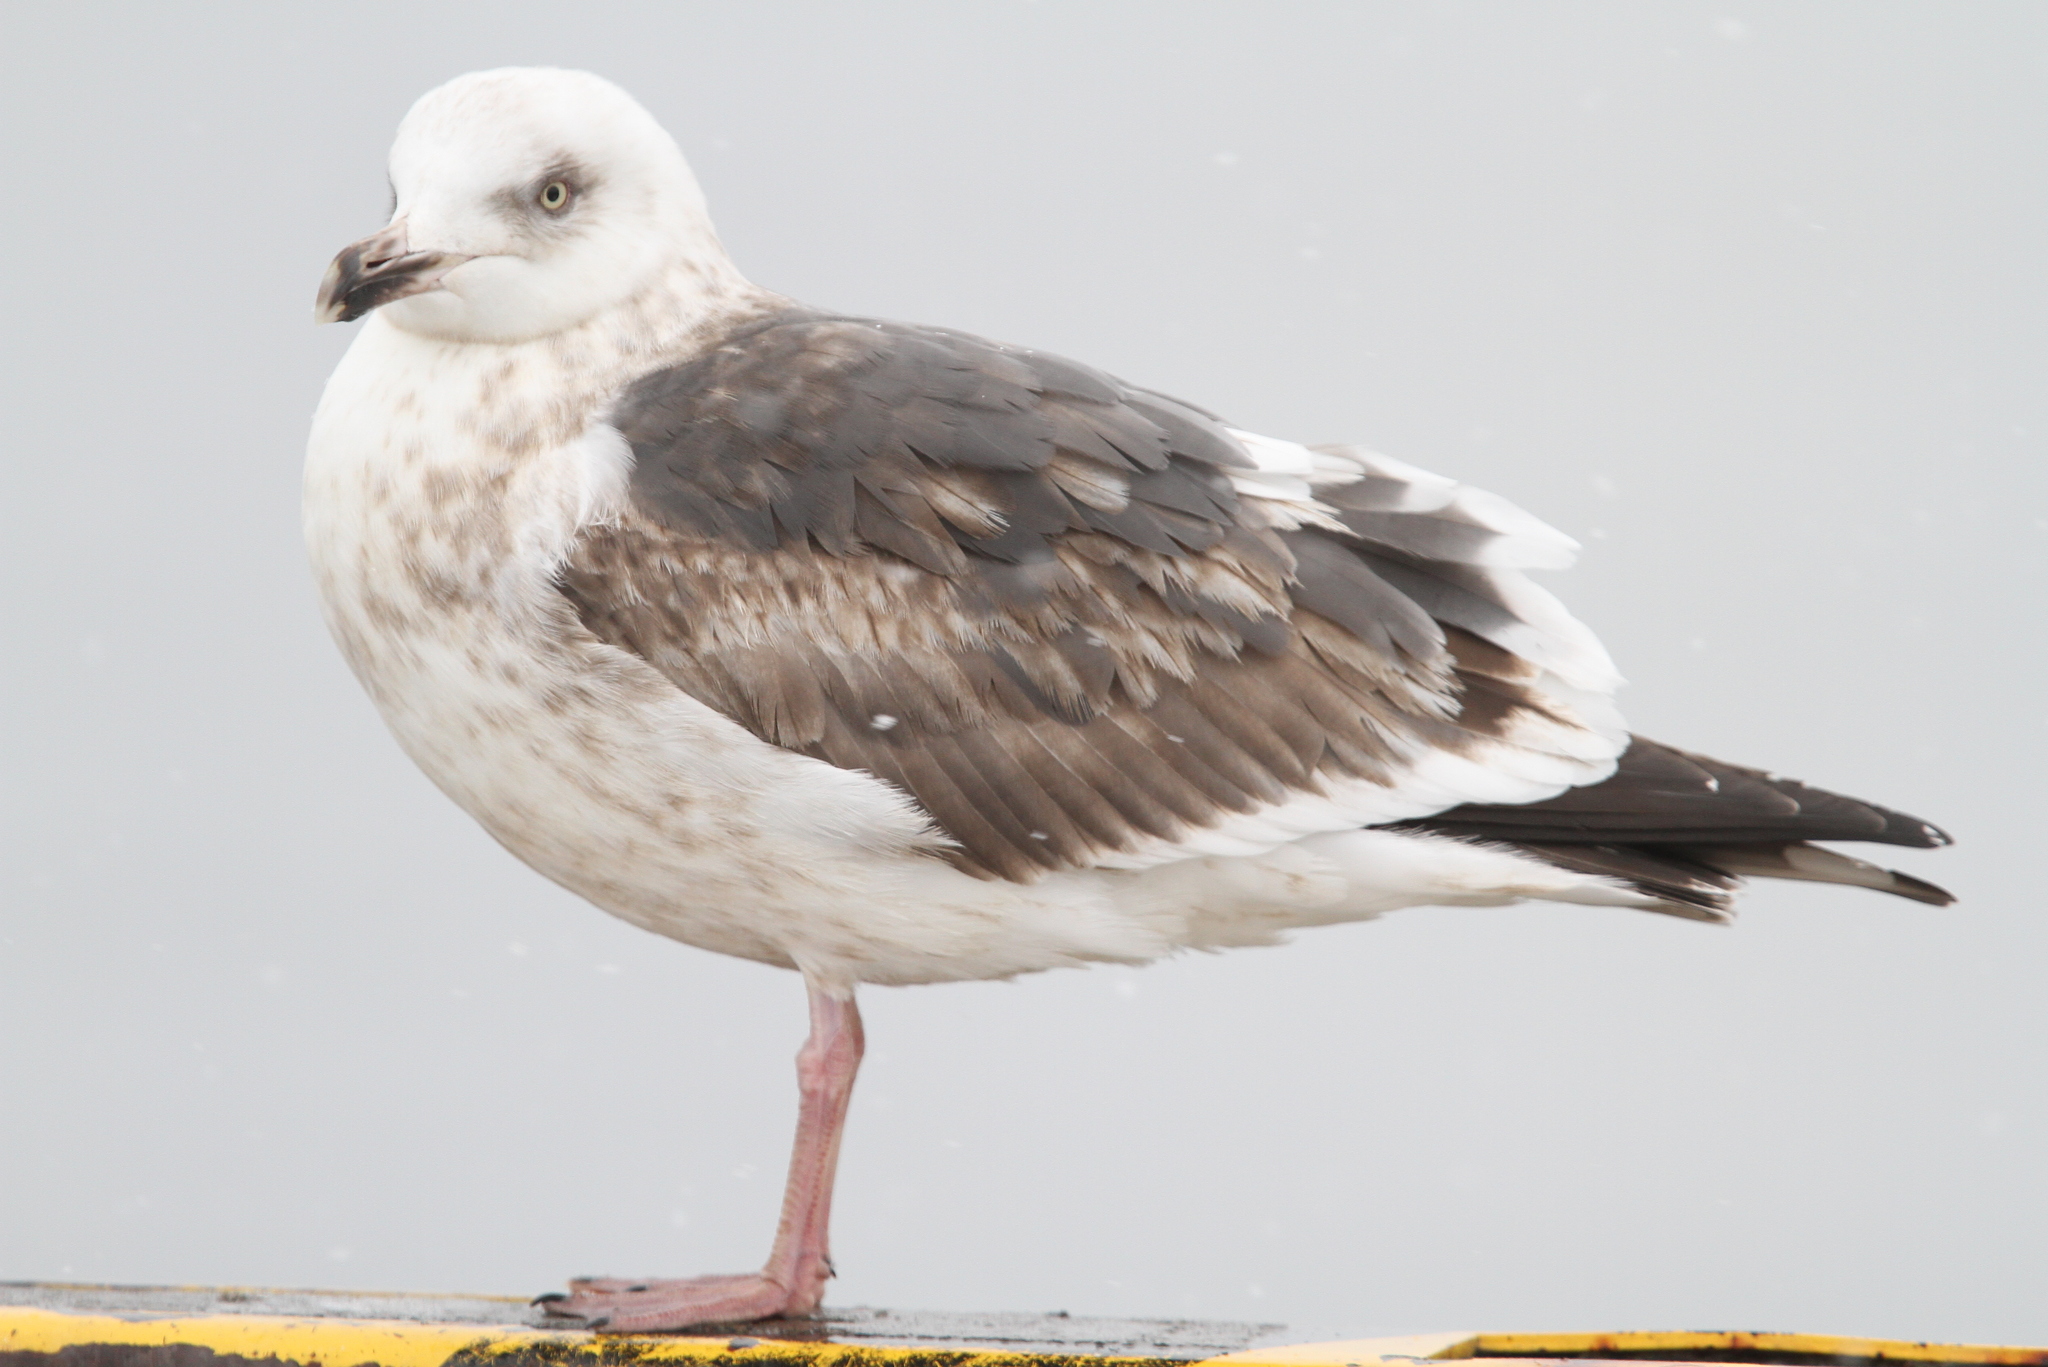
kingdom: Animalia
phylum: Chordata
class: Aves
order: Charadriiformes
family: Laridae
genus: Larus
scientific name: Larus schistisagus
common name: Slaty-backed gull
